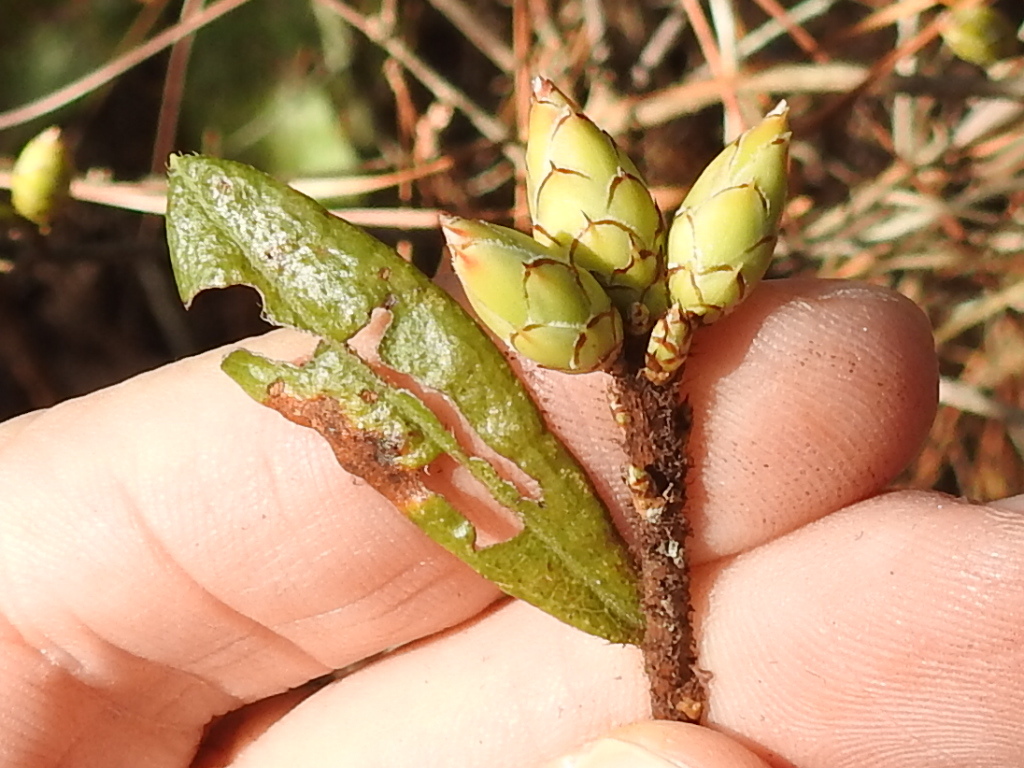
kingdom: Plantae
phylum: Tracheophyta
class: Magnoliopsida
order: Ericales
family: Ericaceae
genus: Rhododendron
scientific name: Rhododendron viscosum
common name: Clammy azalea
